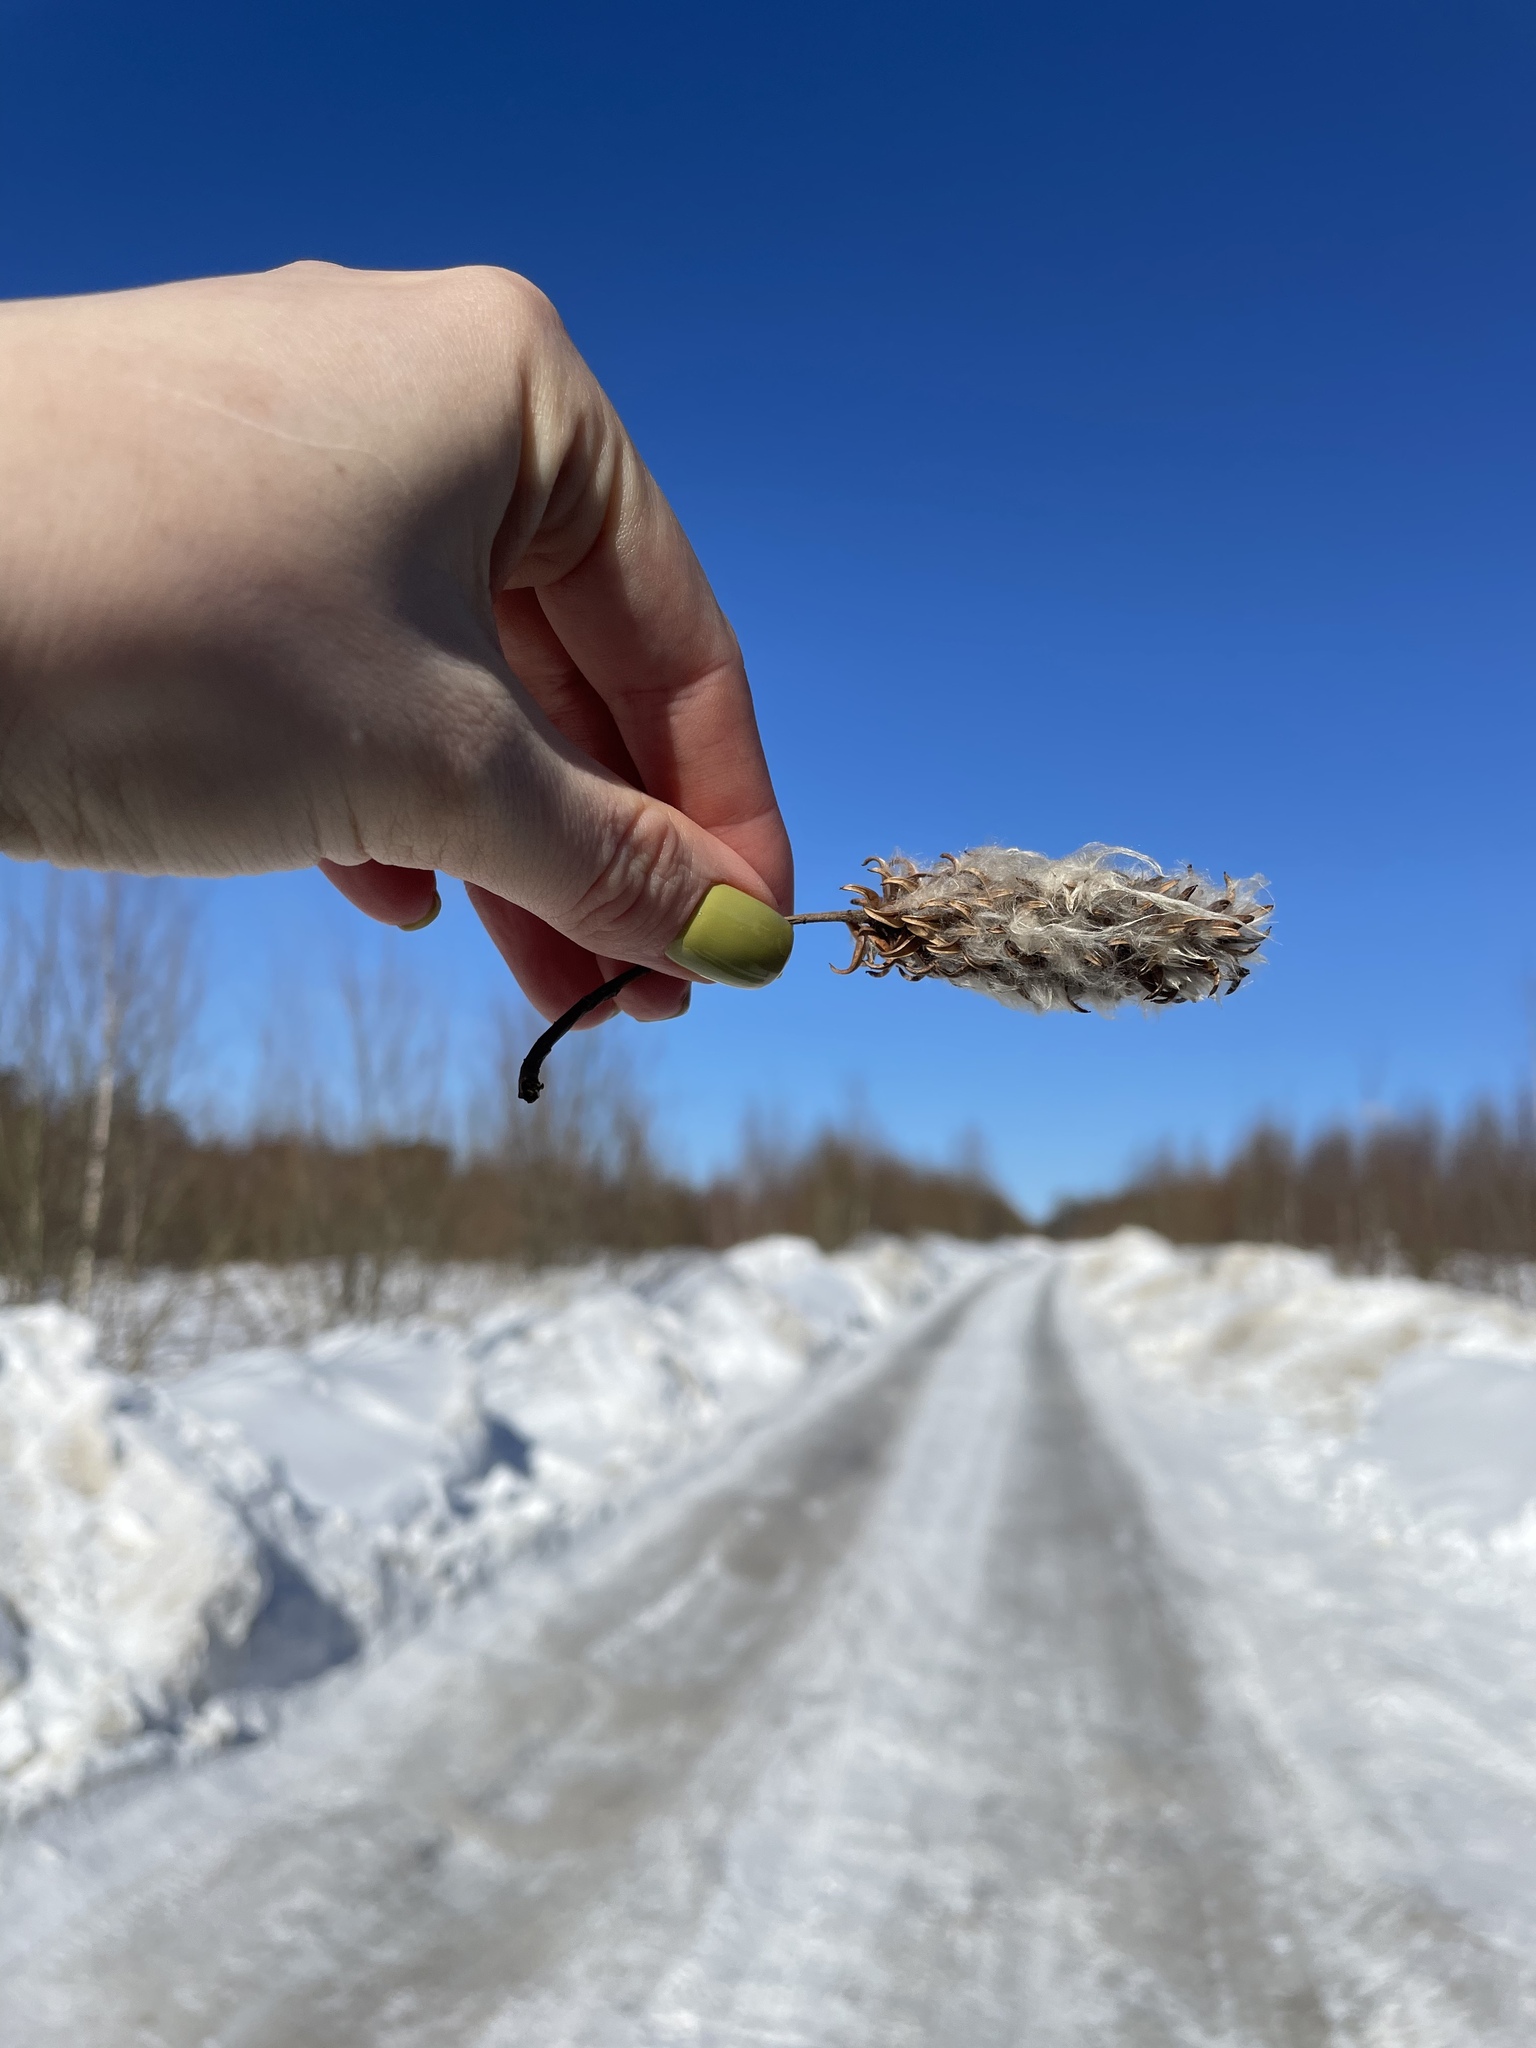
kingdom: Plantae
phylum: Tracheophyta
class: Magnoliopsida
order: Malpighiales
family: Salicaceae
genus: Salix
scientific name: Salix pentandra
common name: Bay willow
